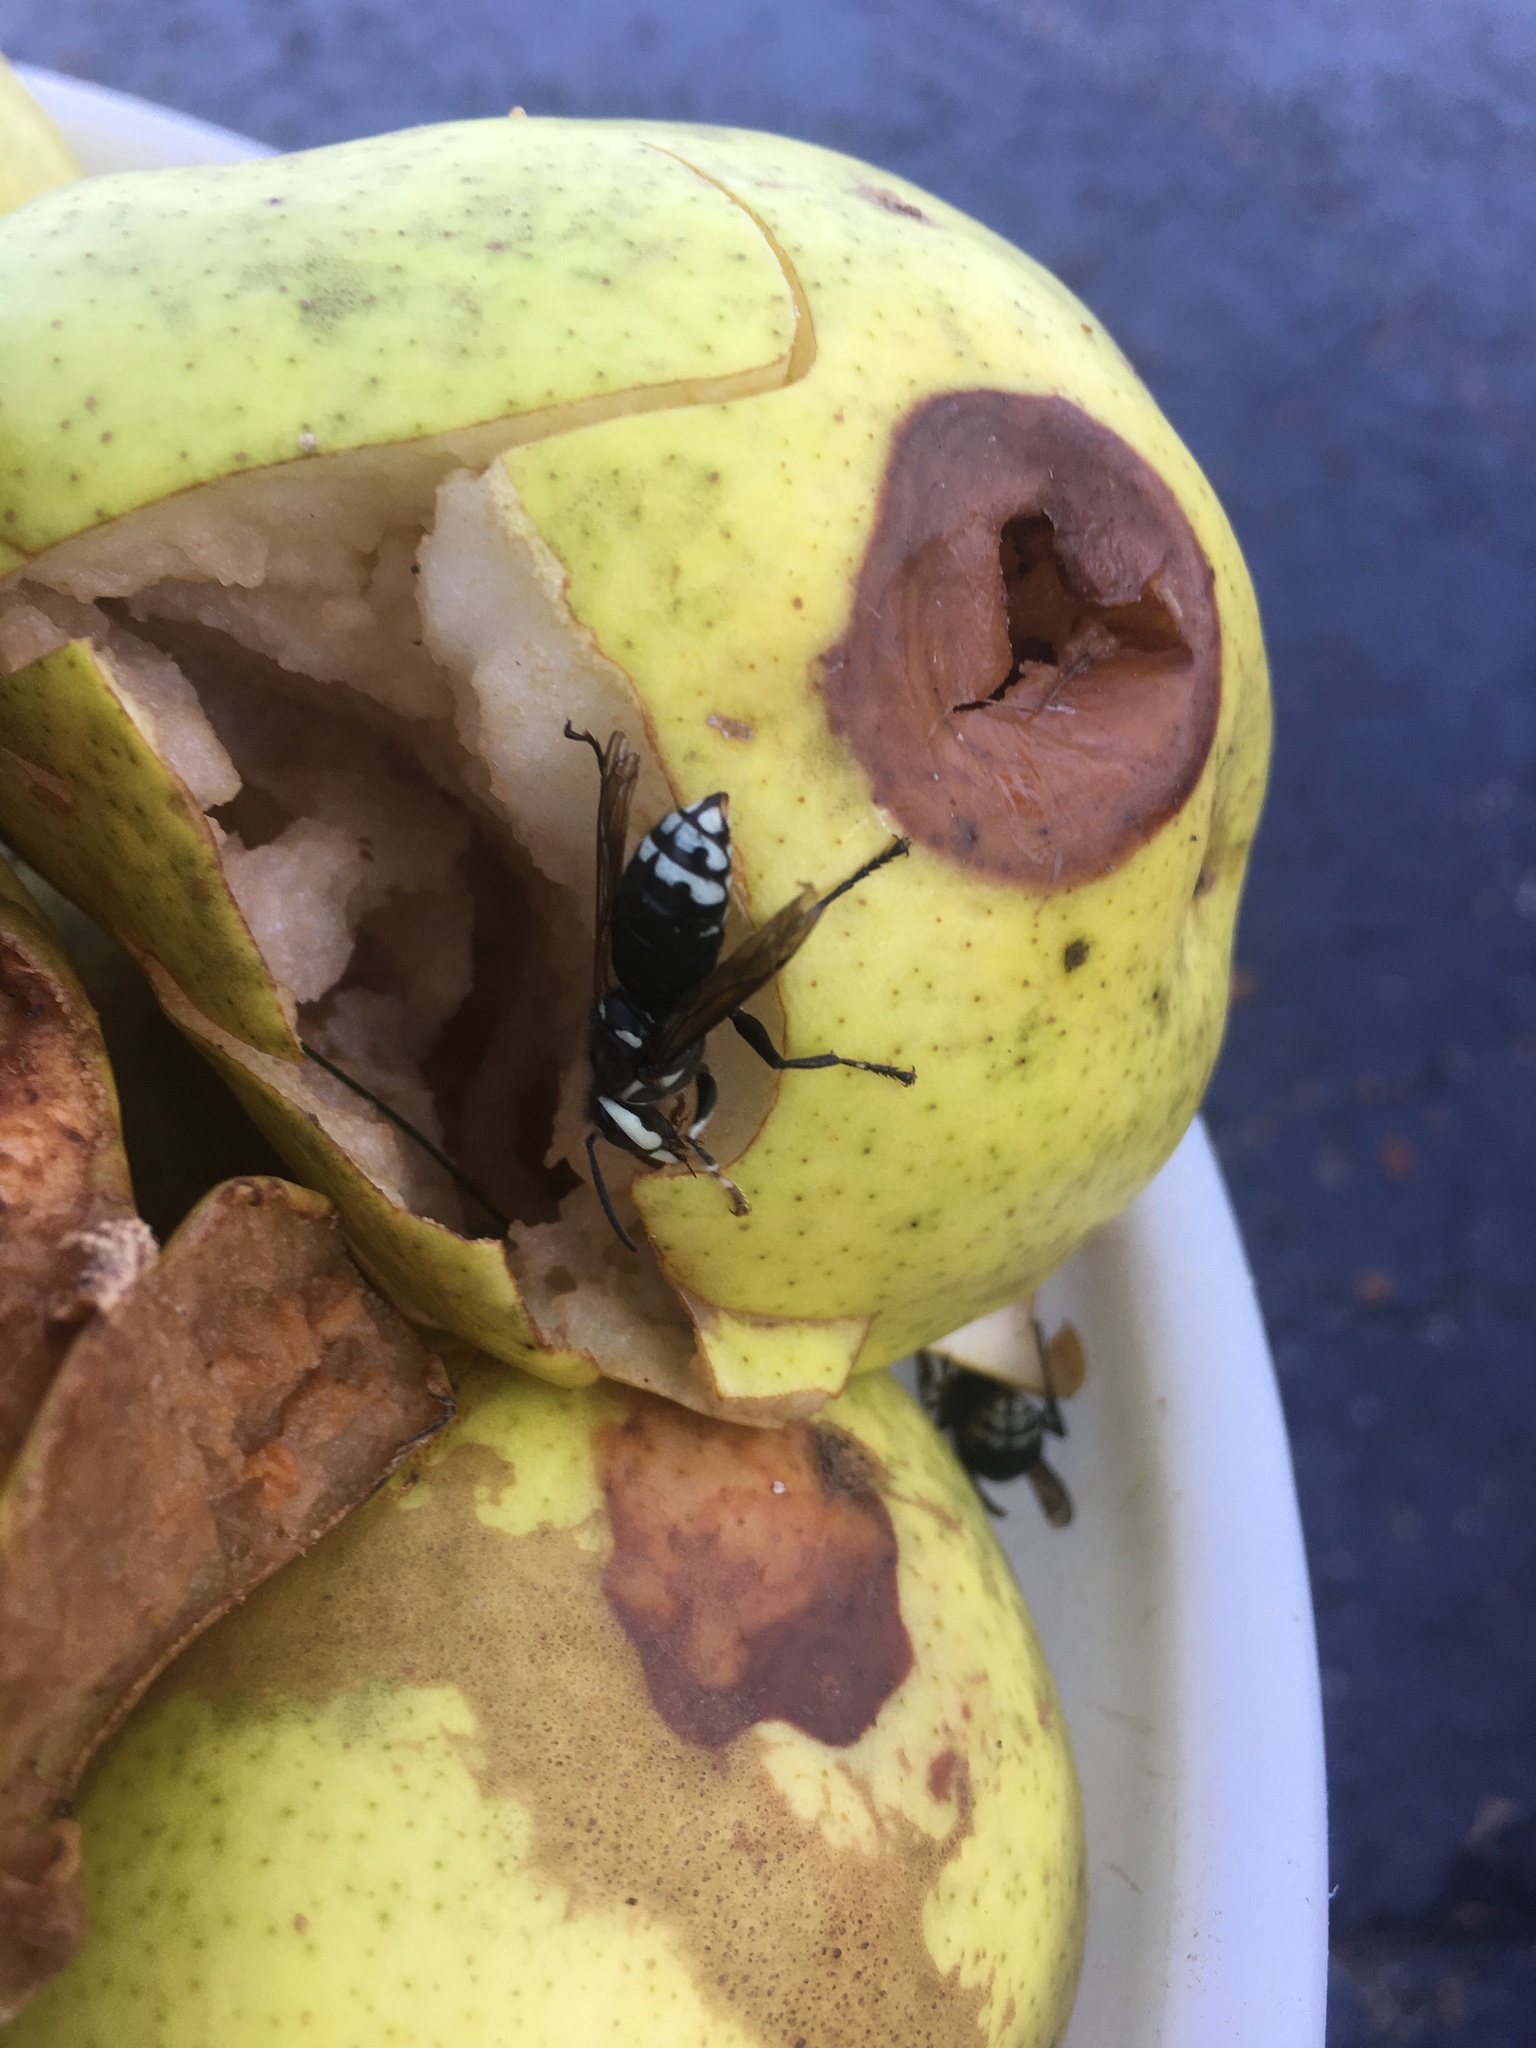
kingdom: Animalia
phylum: Arthropoda
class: Insecta
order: Hymenoptera
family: Vespidae
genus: Dolichovespula
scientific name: Dolichovespula maculata
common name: Bald-faced hornet
